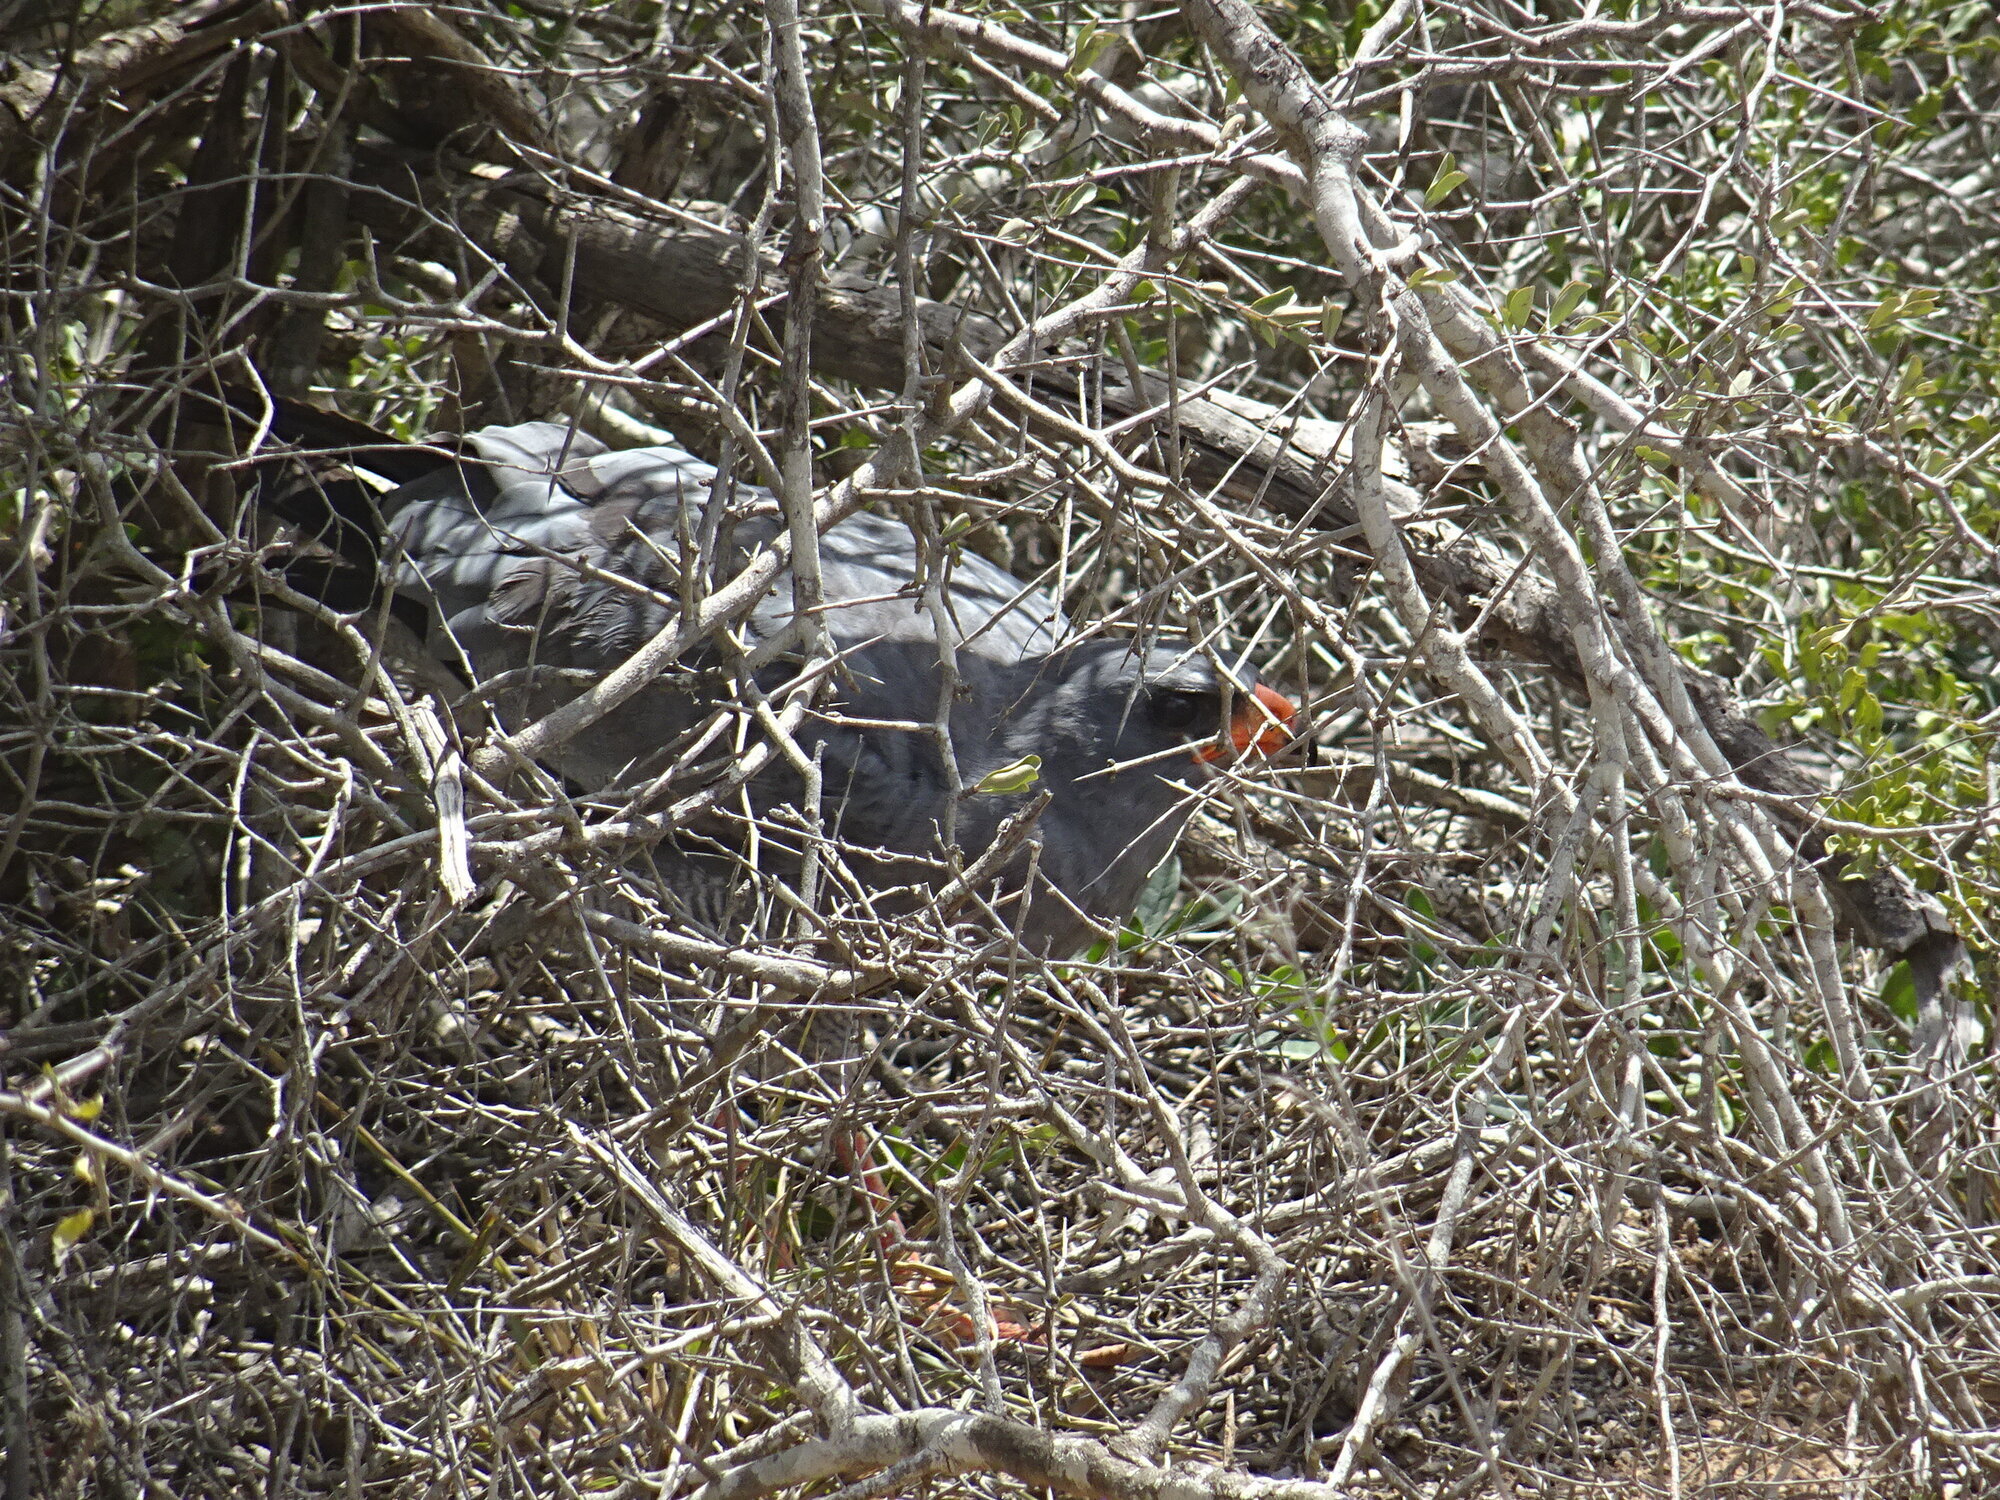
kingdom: Animalia
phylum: Chordata
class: Aves
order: Accipitriformes
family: Accipitridae
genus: Melierax
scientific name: Melierax canorus
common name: Pale chanting-goshawk
